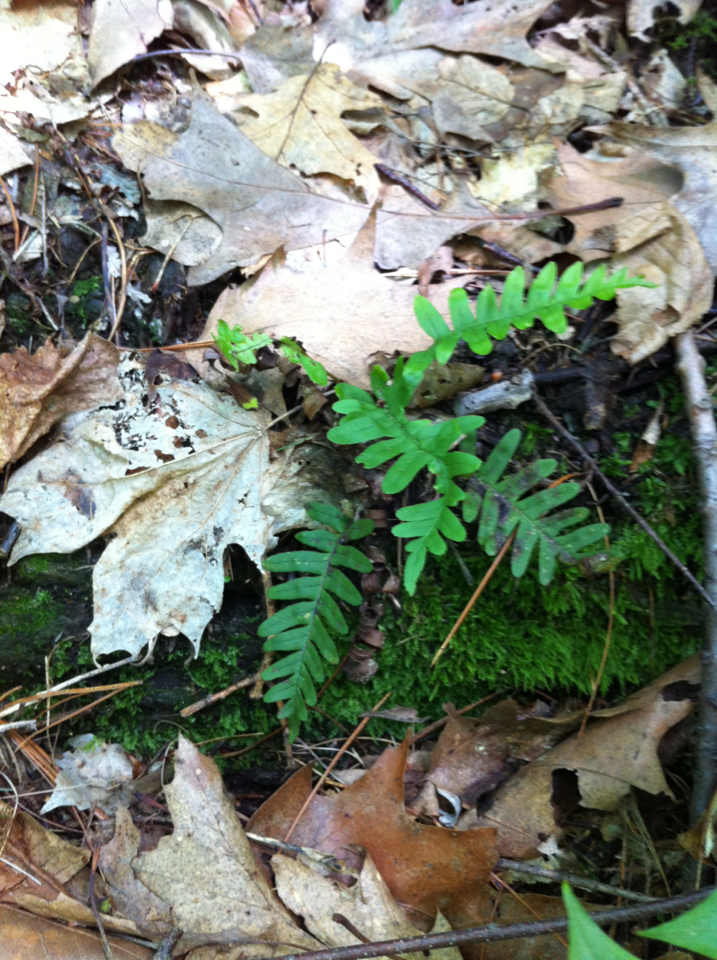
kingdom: Plantae
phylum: Tracheophyta
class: Polypodiopsida
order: Polypodiales
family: Polypodiaceae
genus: Polypodium
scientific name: Polypodium virginianum
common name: American wall fern
